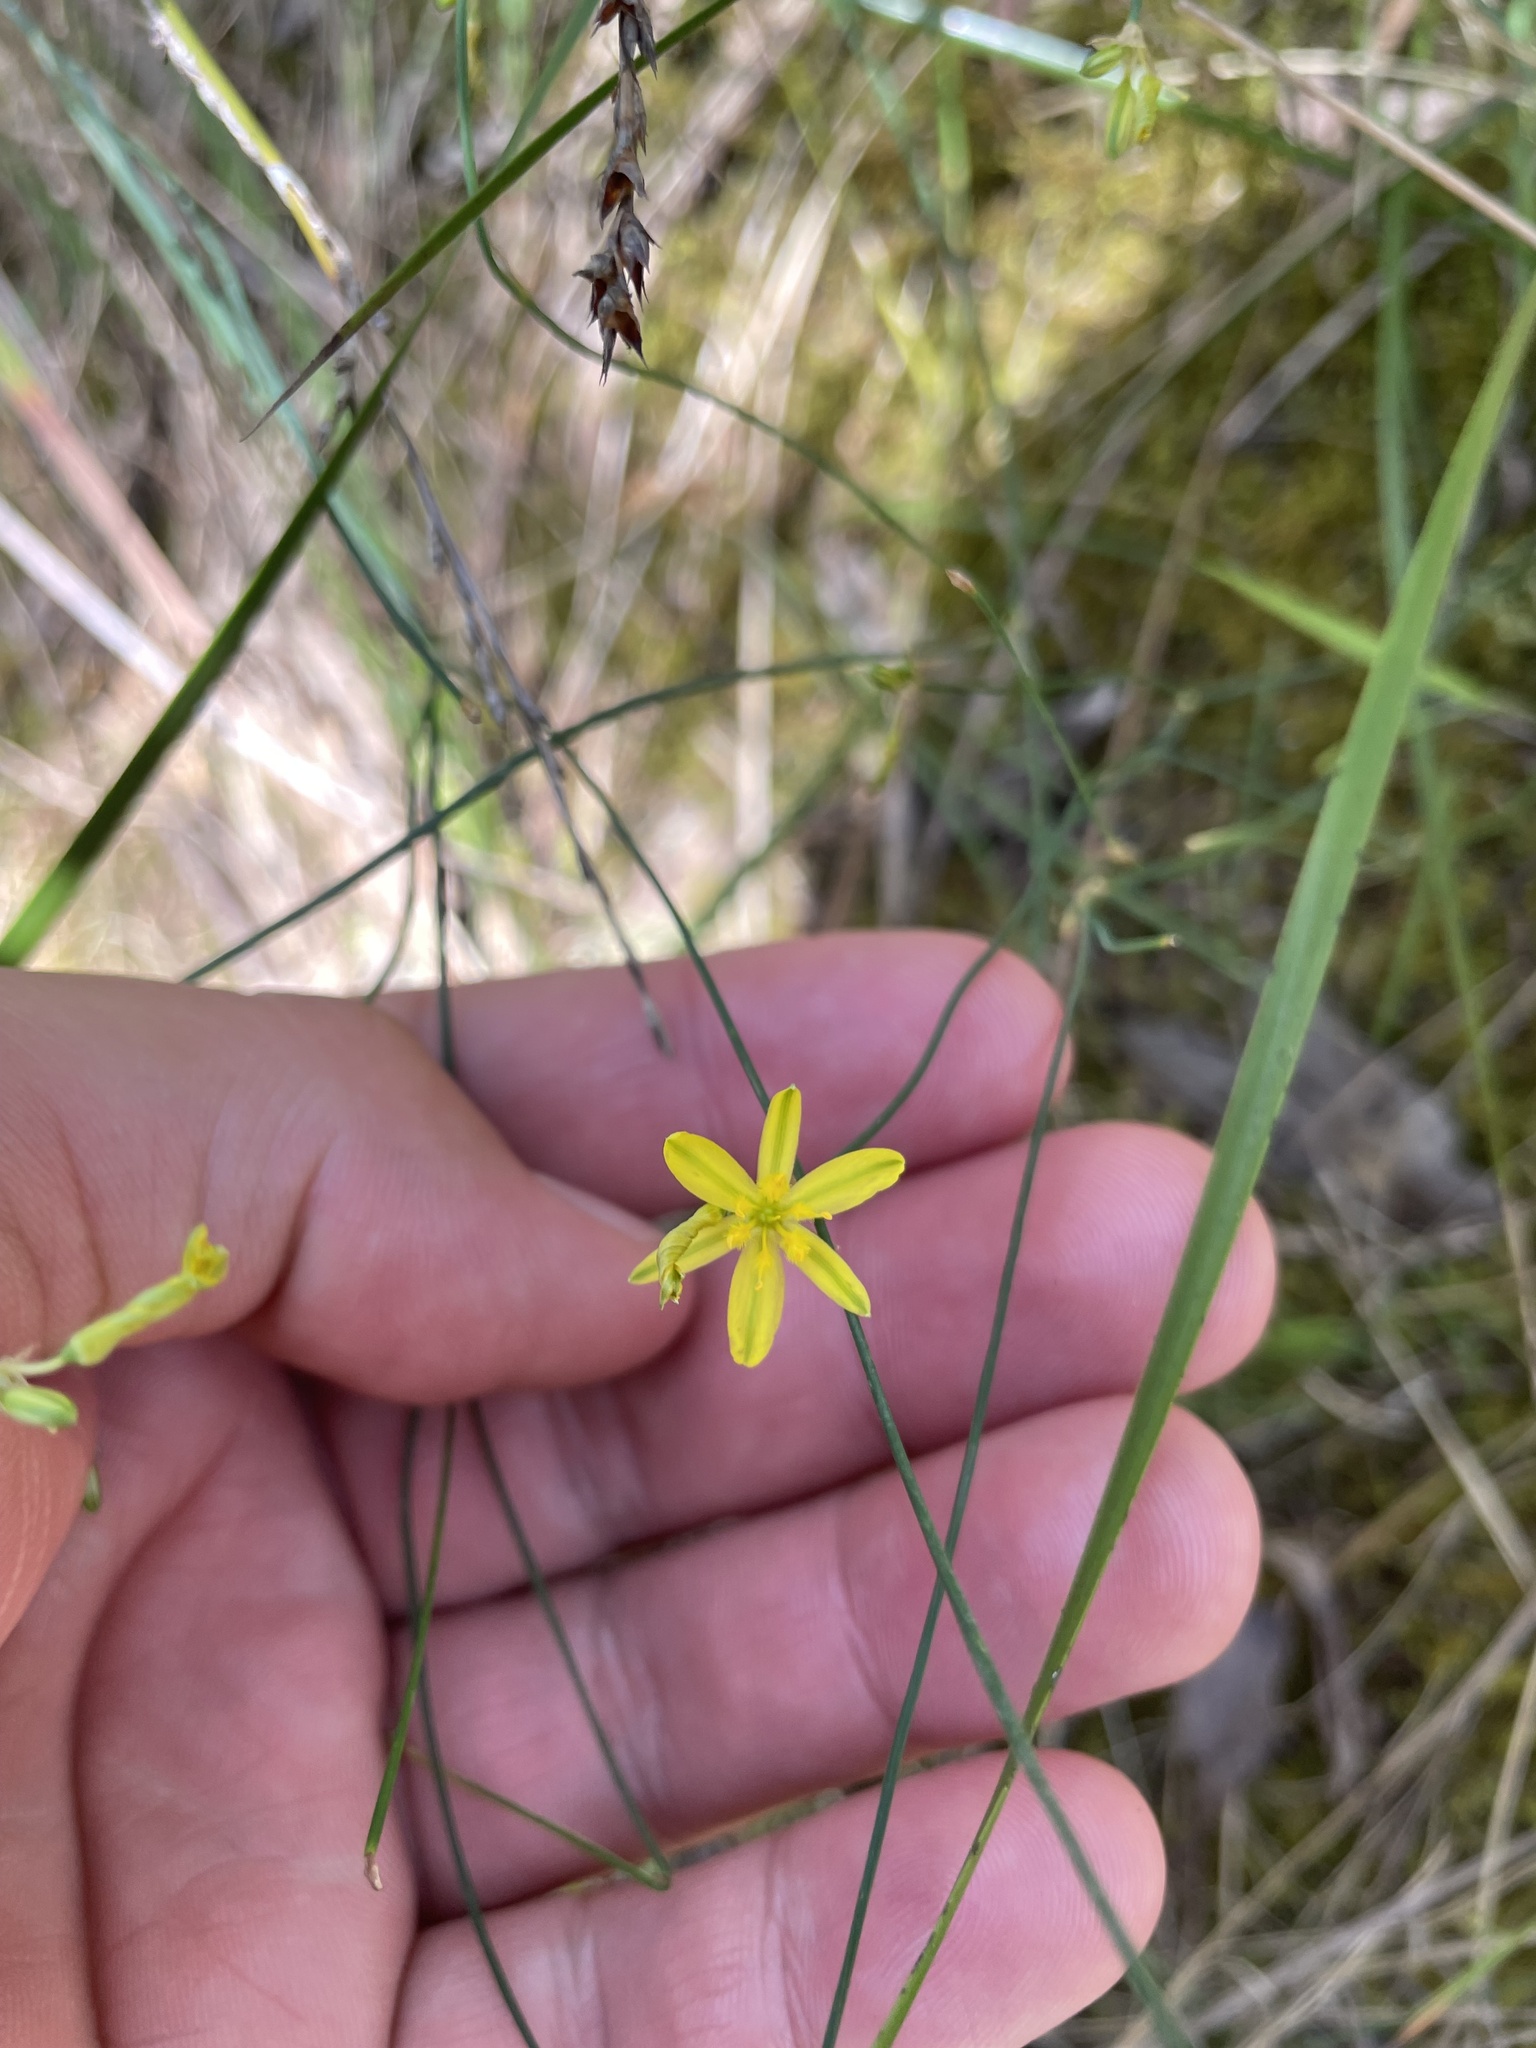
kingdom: Plantae
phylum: Tracheophyta
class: Liliopsida
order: Asparagales
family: Asphodelaceae
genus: Tricoryne
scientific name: Tricoryne elatior
